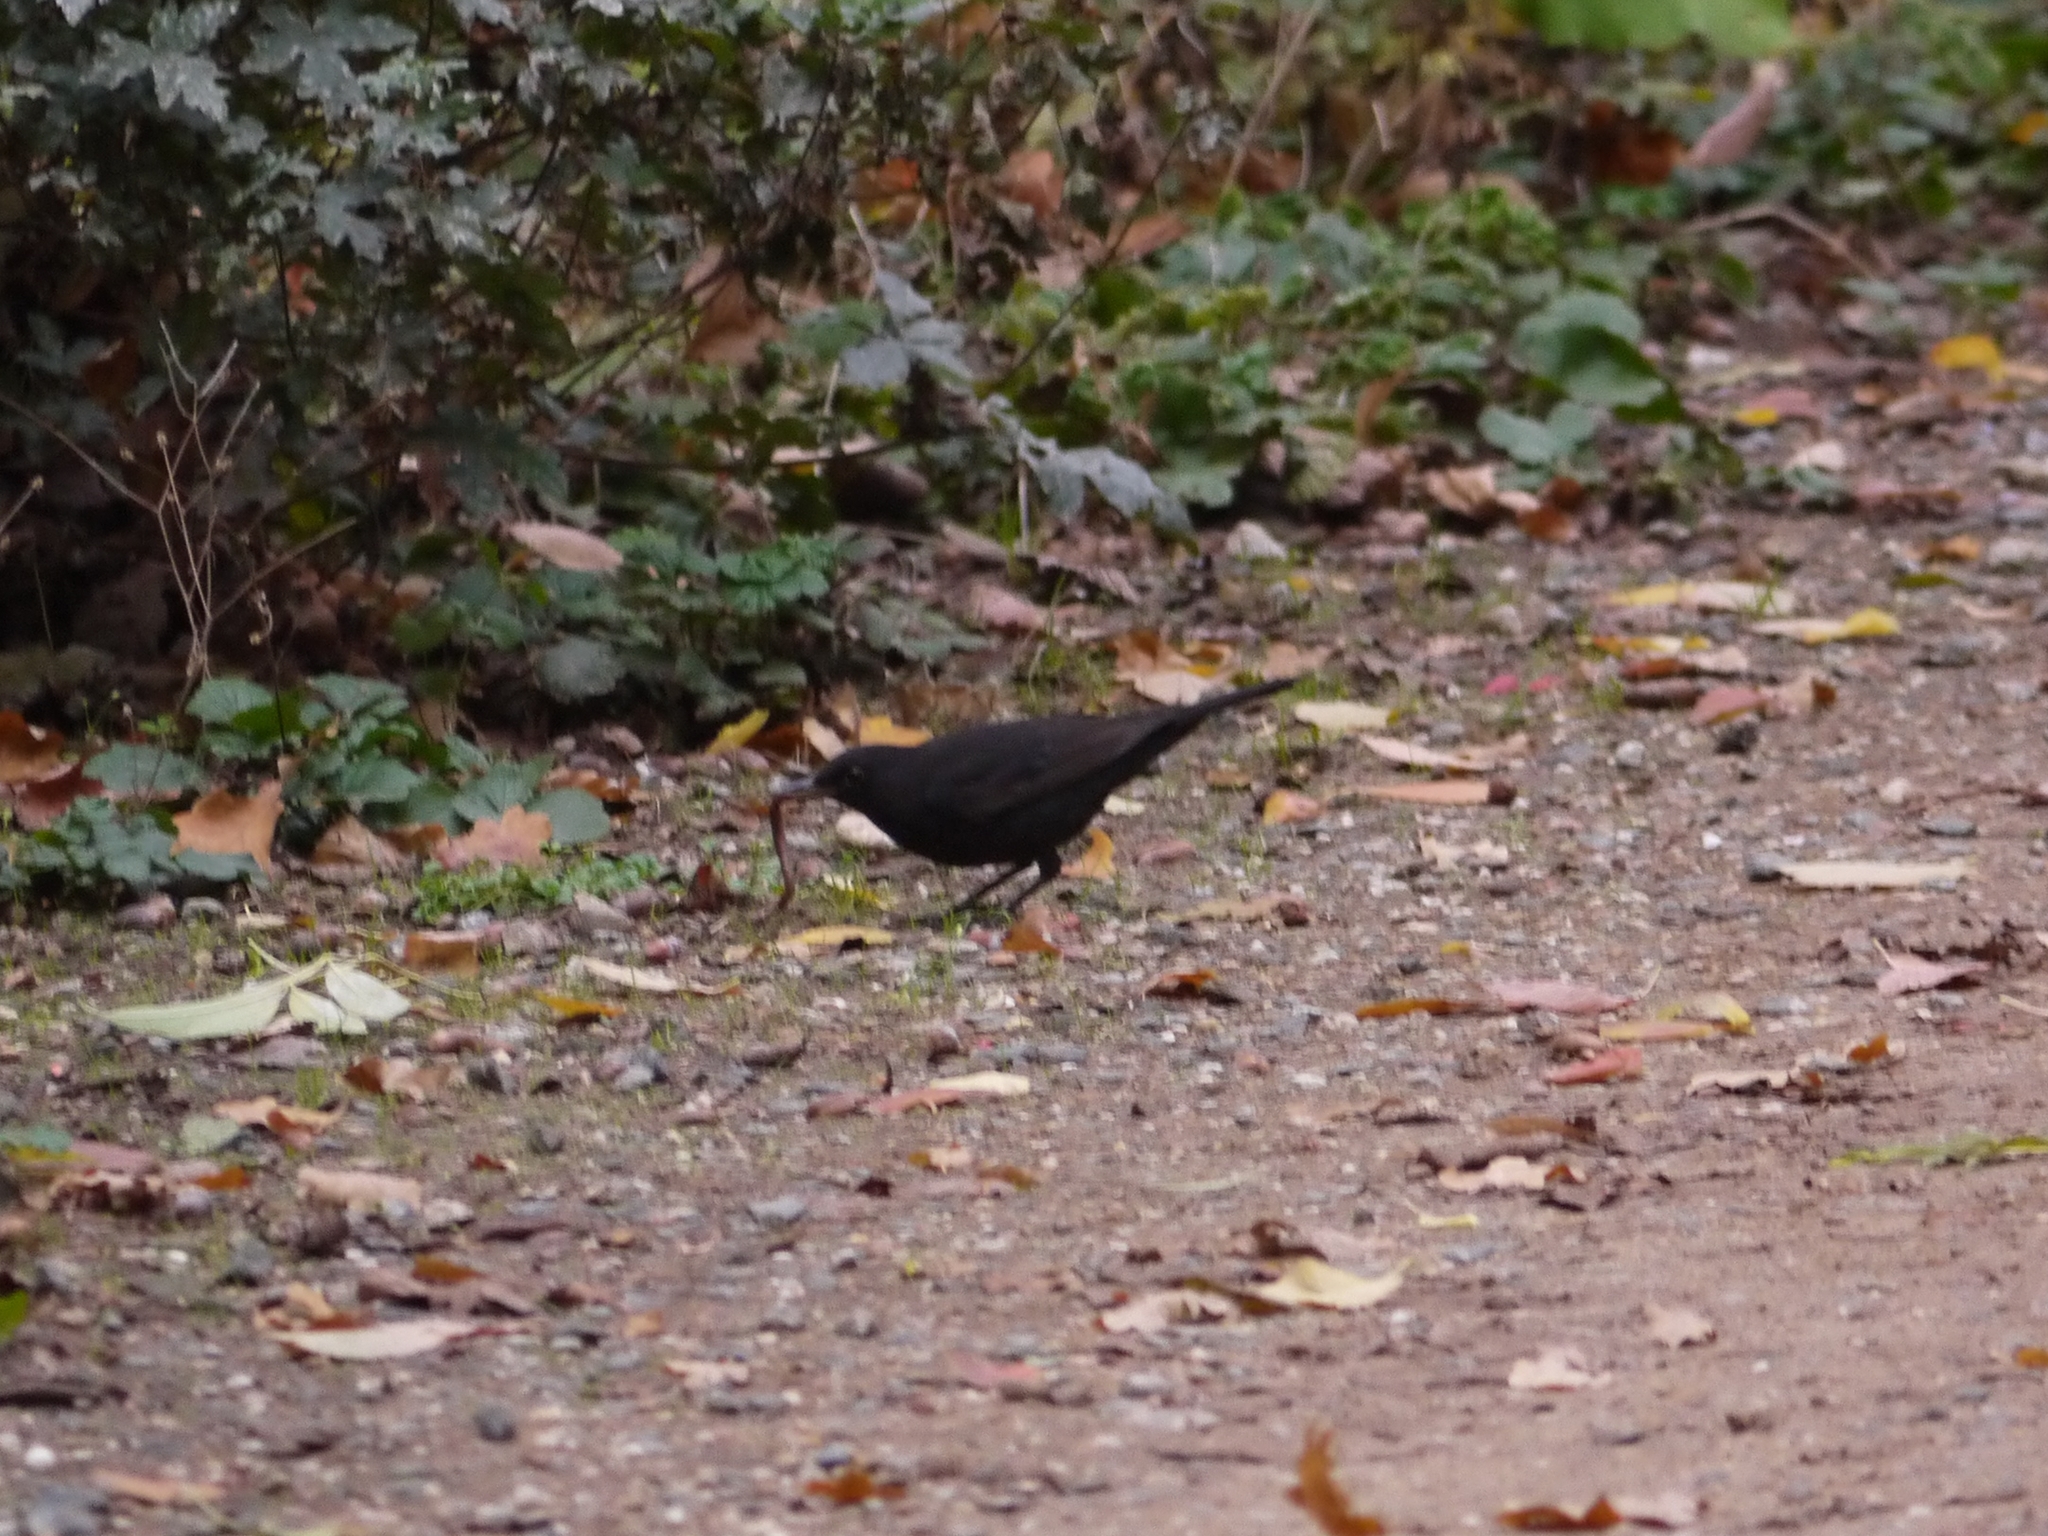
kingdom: Animalia
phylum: Chordata
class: Aves
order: Passeriformes
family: Turdidae
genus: Turdus
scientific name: Turdus merula
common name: Common blackbird
